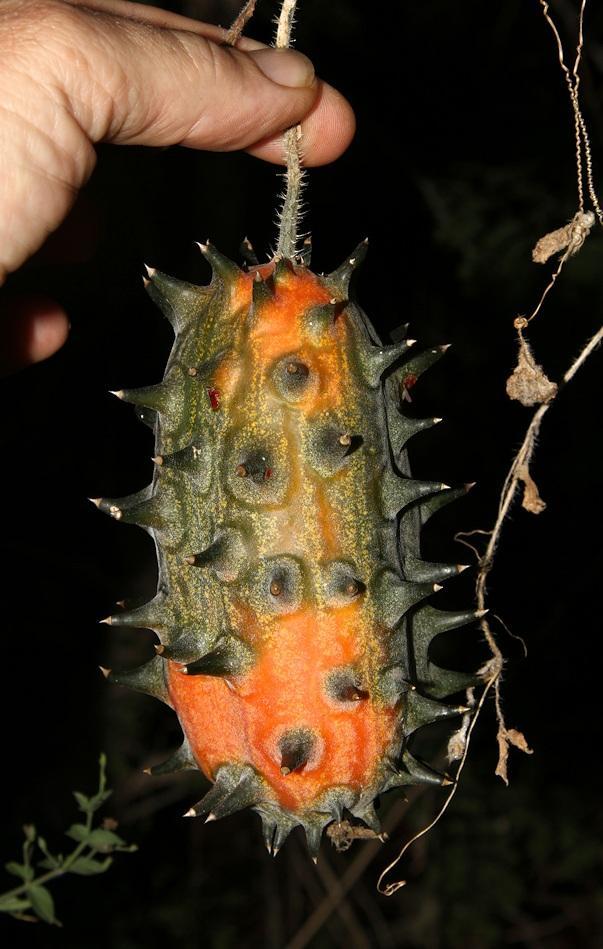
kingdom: Plantae
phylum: Tracheophyta
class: Magnoliopsida
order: Cucurbitales
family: Cucurbitaceae
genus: Cucumis
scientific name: Cucumis metuliferus
